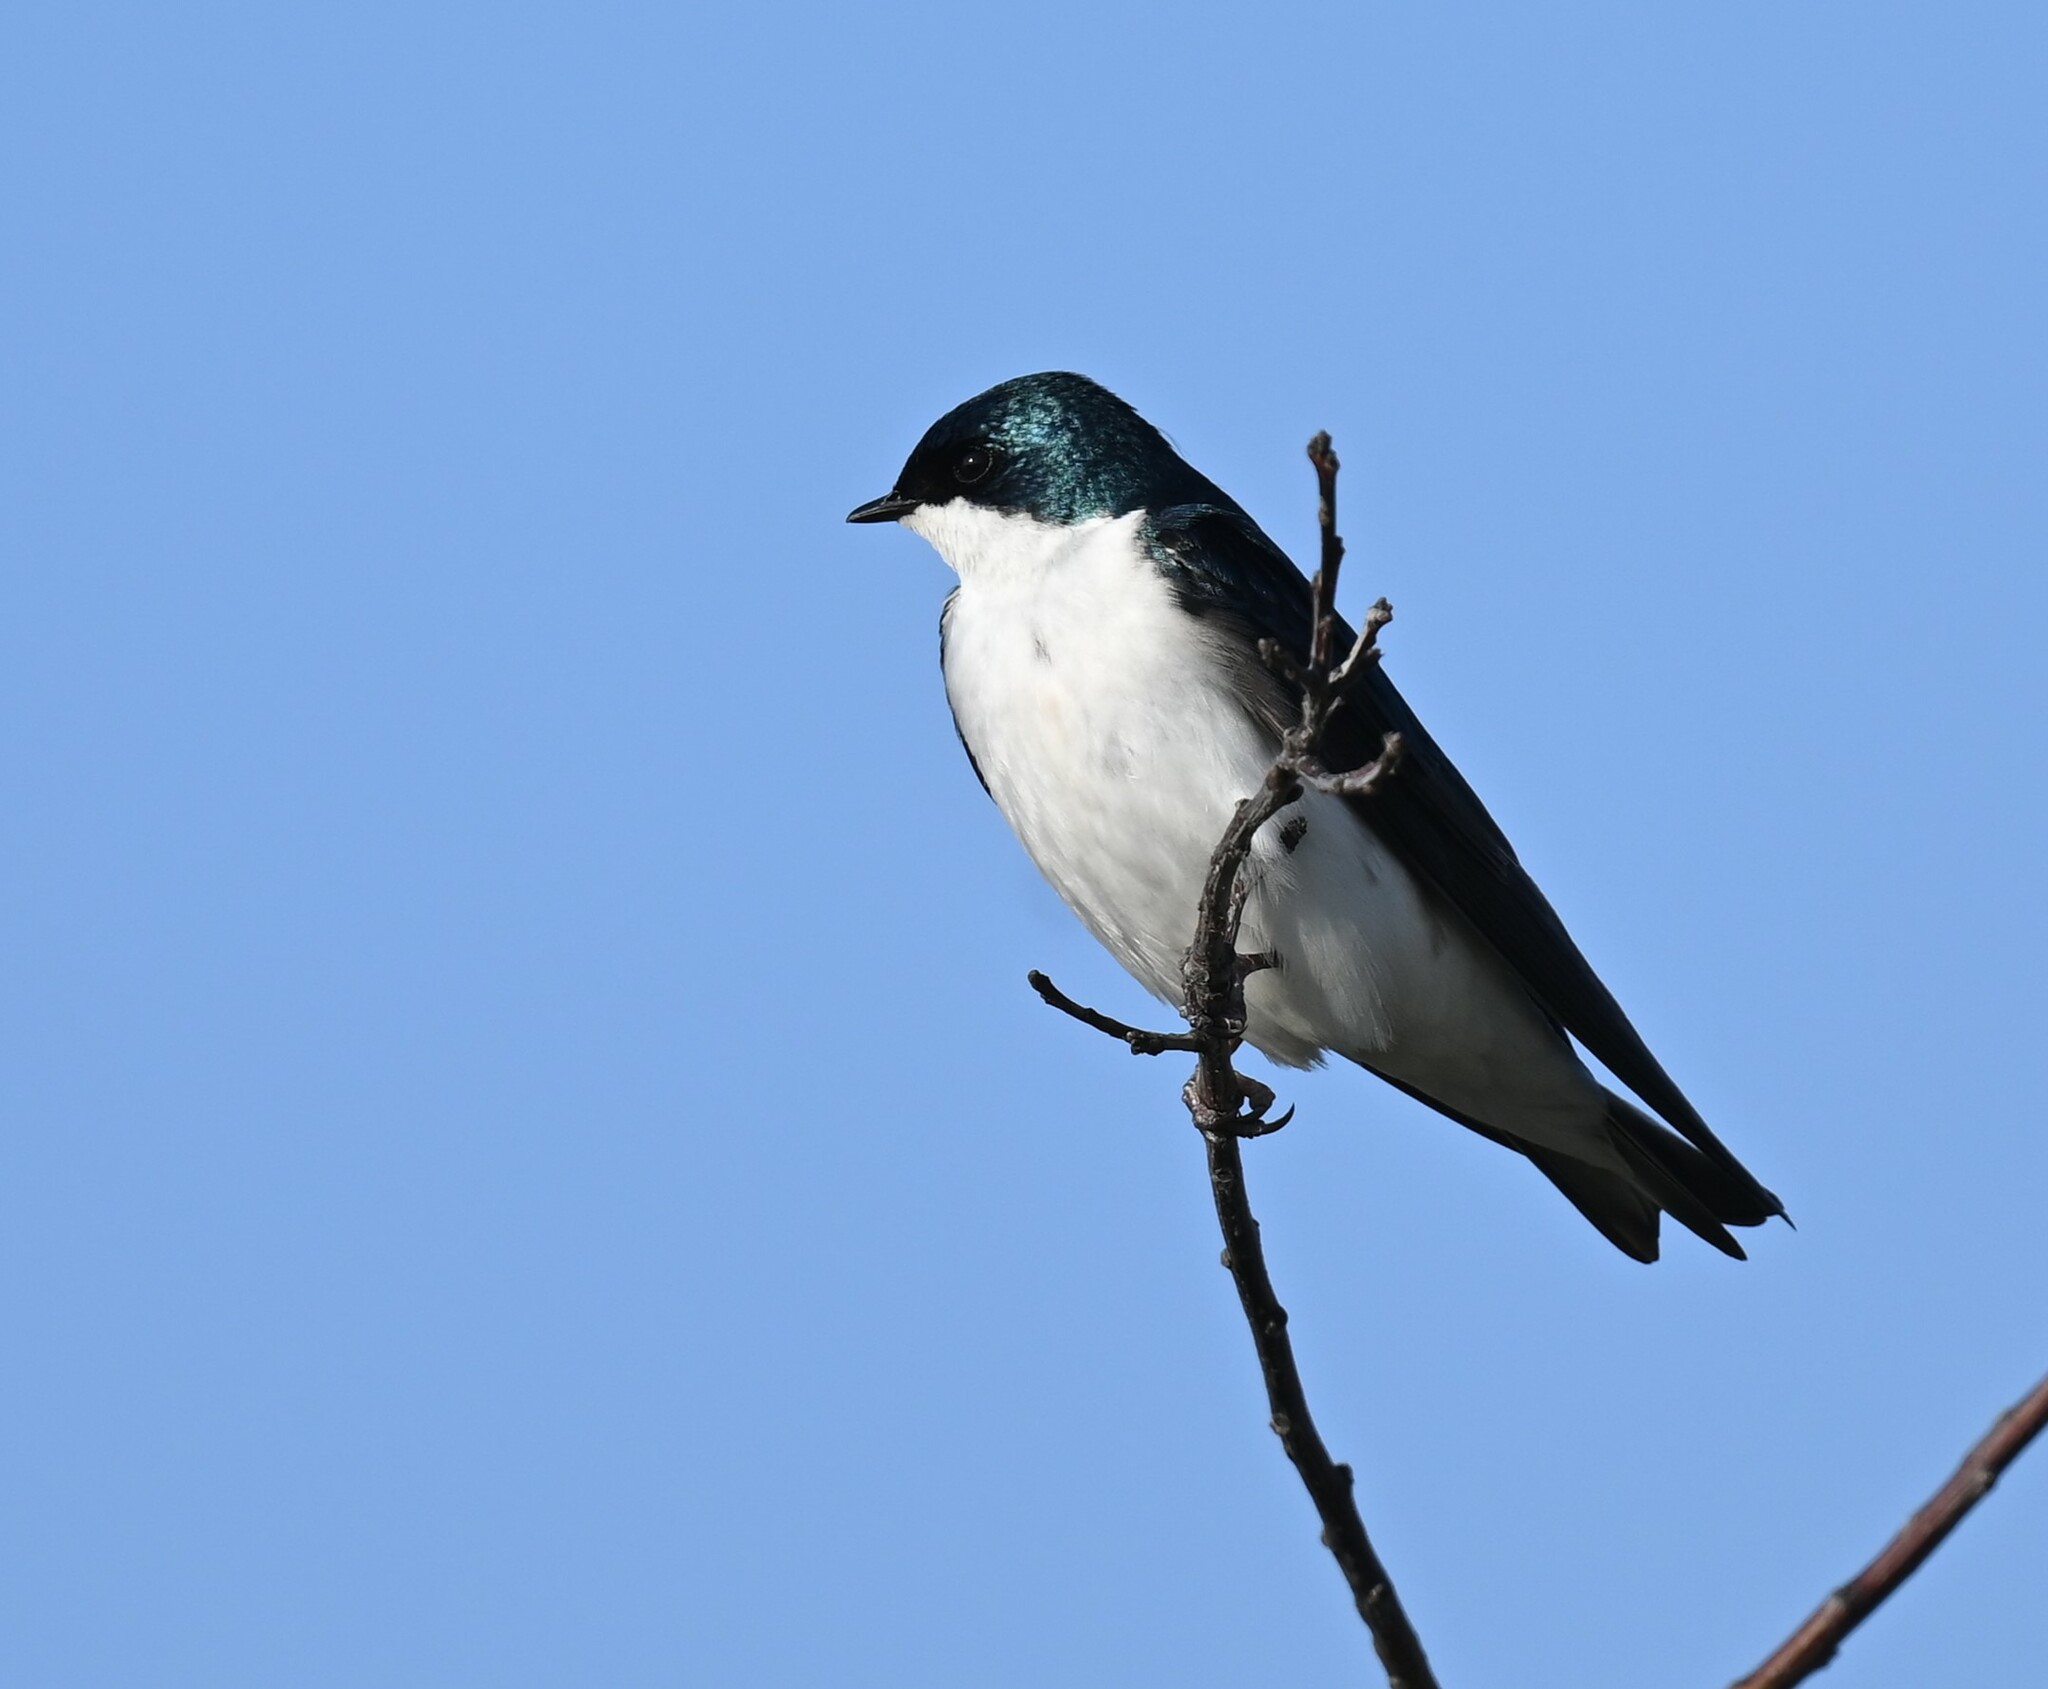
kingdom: Animalia
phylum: Chordata
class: Aves
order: Passeriformes
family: Hirundinidae
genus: Tachycineta
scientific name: Tachycineta bicolor
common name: Tree swallow
